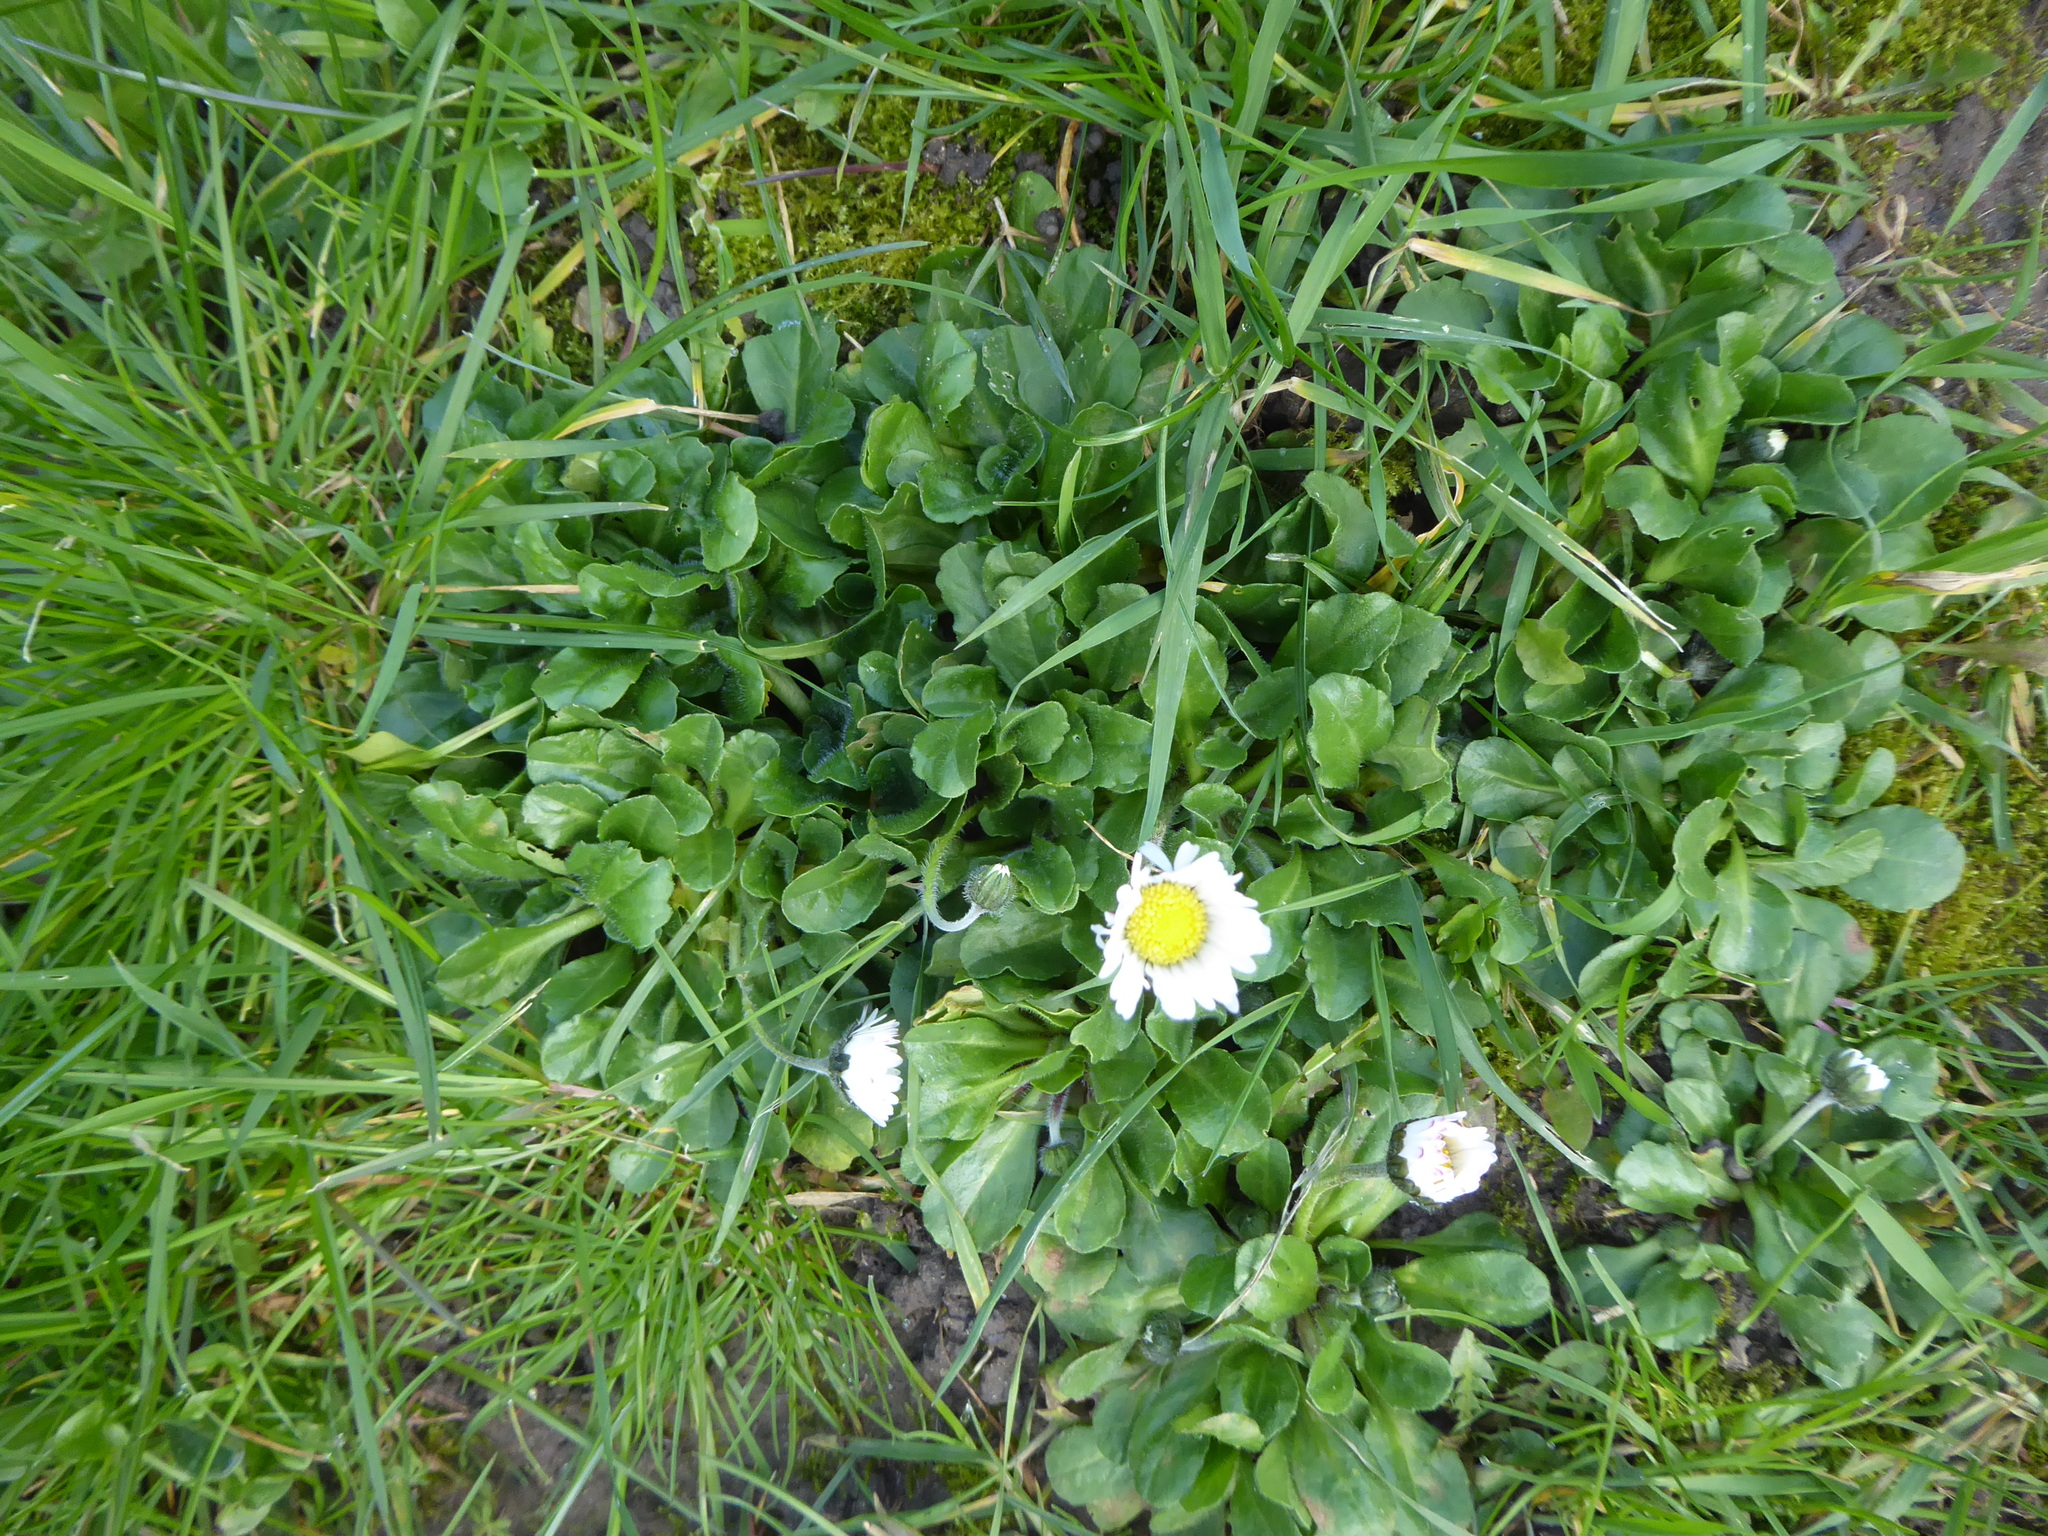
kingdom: Plantae
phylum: Tracheophyta
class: Magnoliopsida
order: Asterales
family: Asteraceae
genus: Bellis
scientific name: Bellis perennis
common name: Lawndaisy
